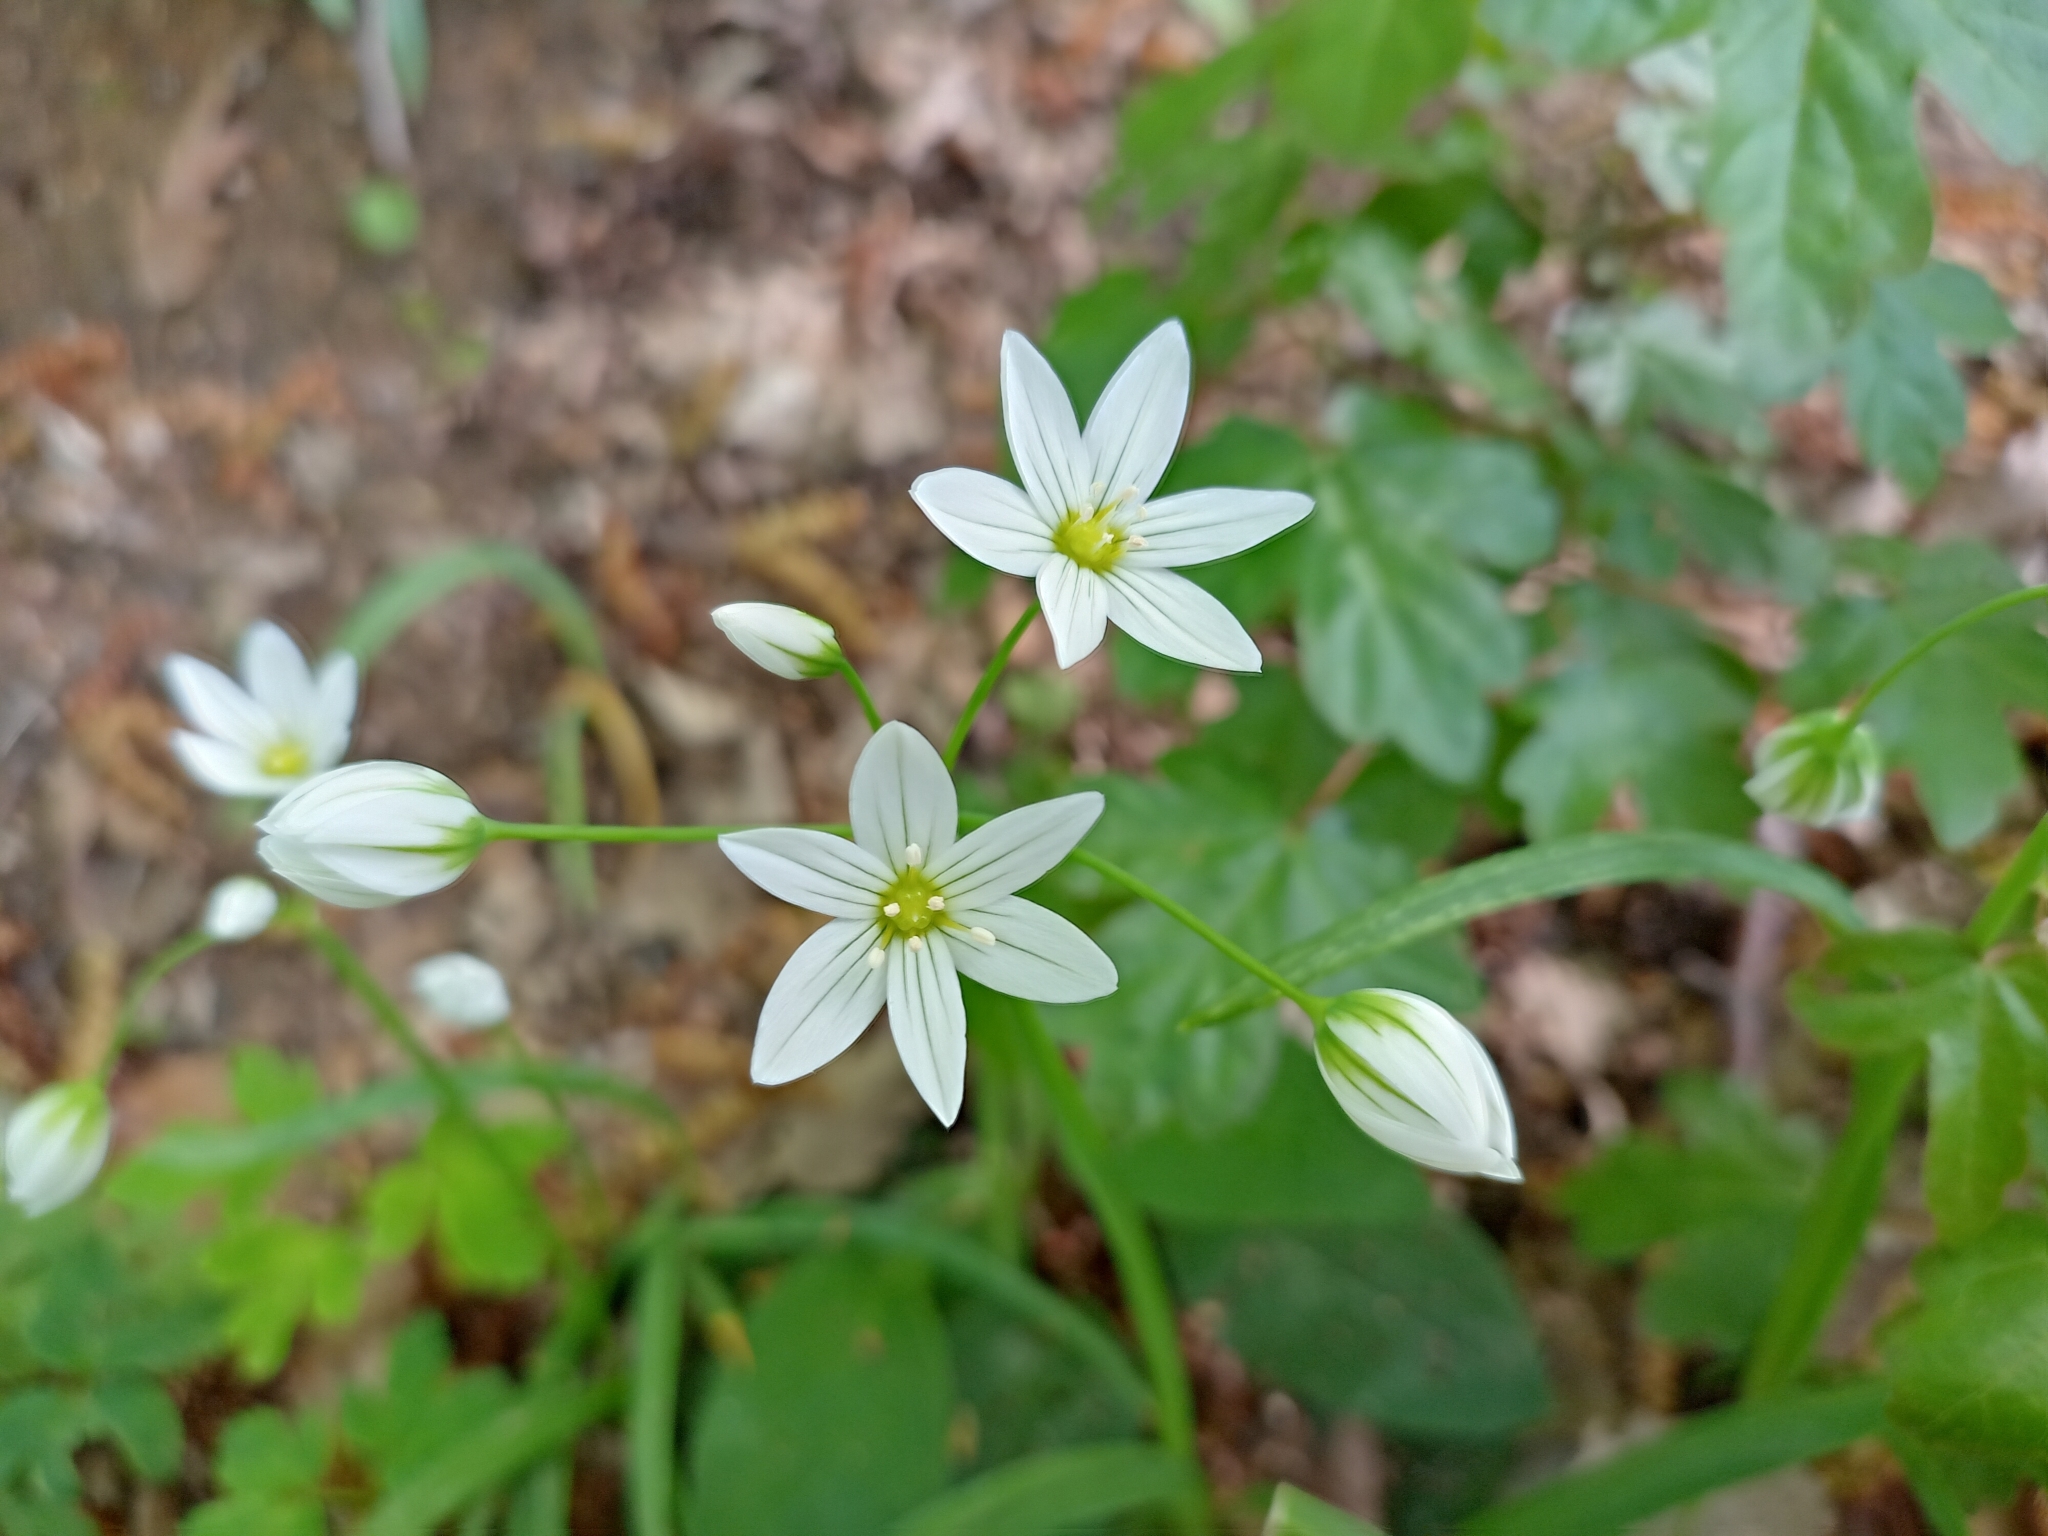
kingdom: Plantae
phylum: Tracheophyta
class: Liliopsida
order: Asparagales
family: Amaryllidaceae
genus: Allium
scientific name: Allium pendulinum
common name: Italian garlic
